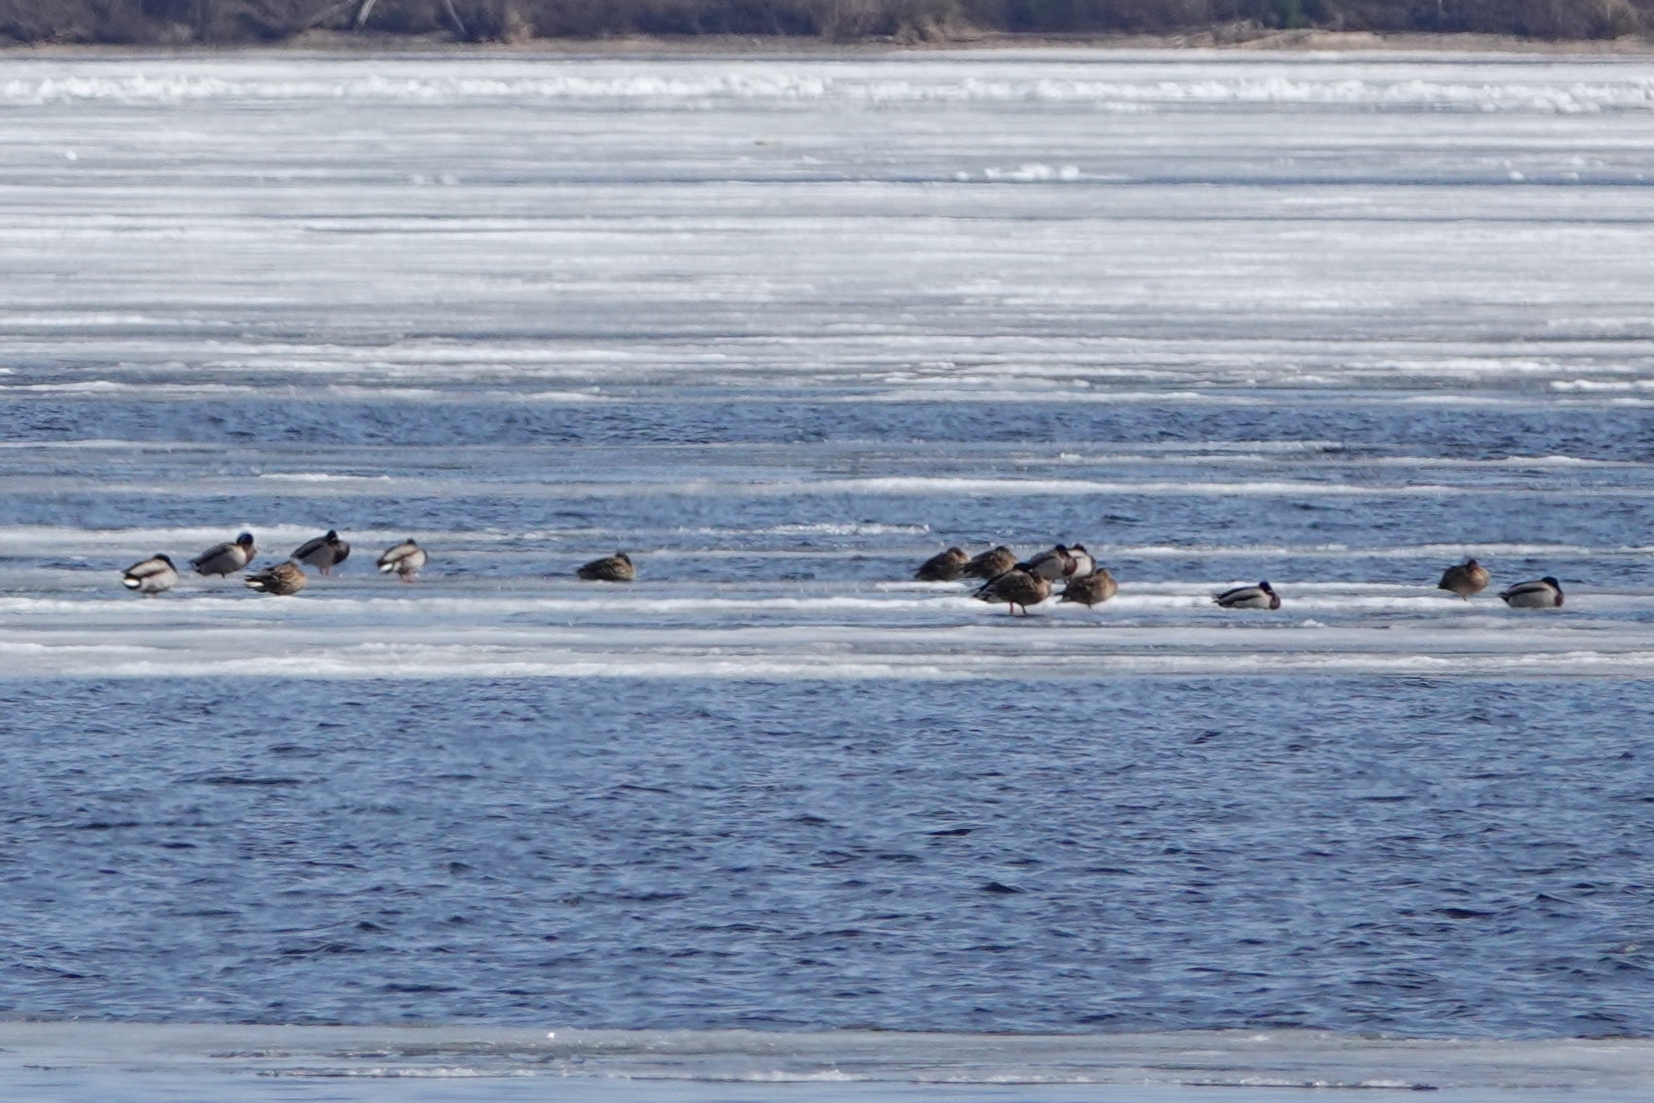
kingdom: Animalia
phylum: Chordata
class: Aves
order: Anseriformes
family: Anatidae
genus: Anas
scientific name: Anas platyrhynchos
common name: Mallard
